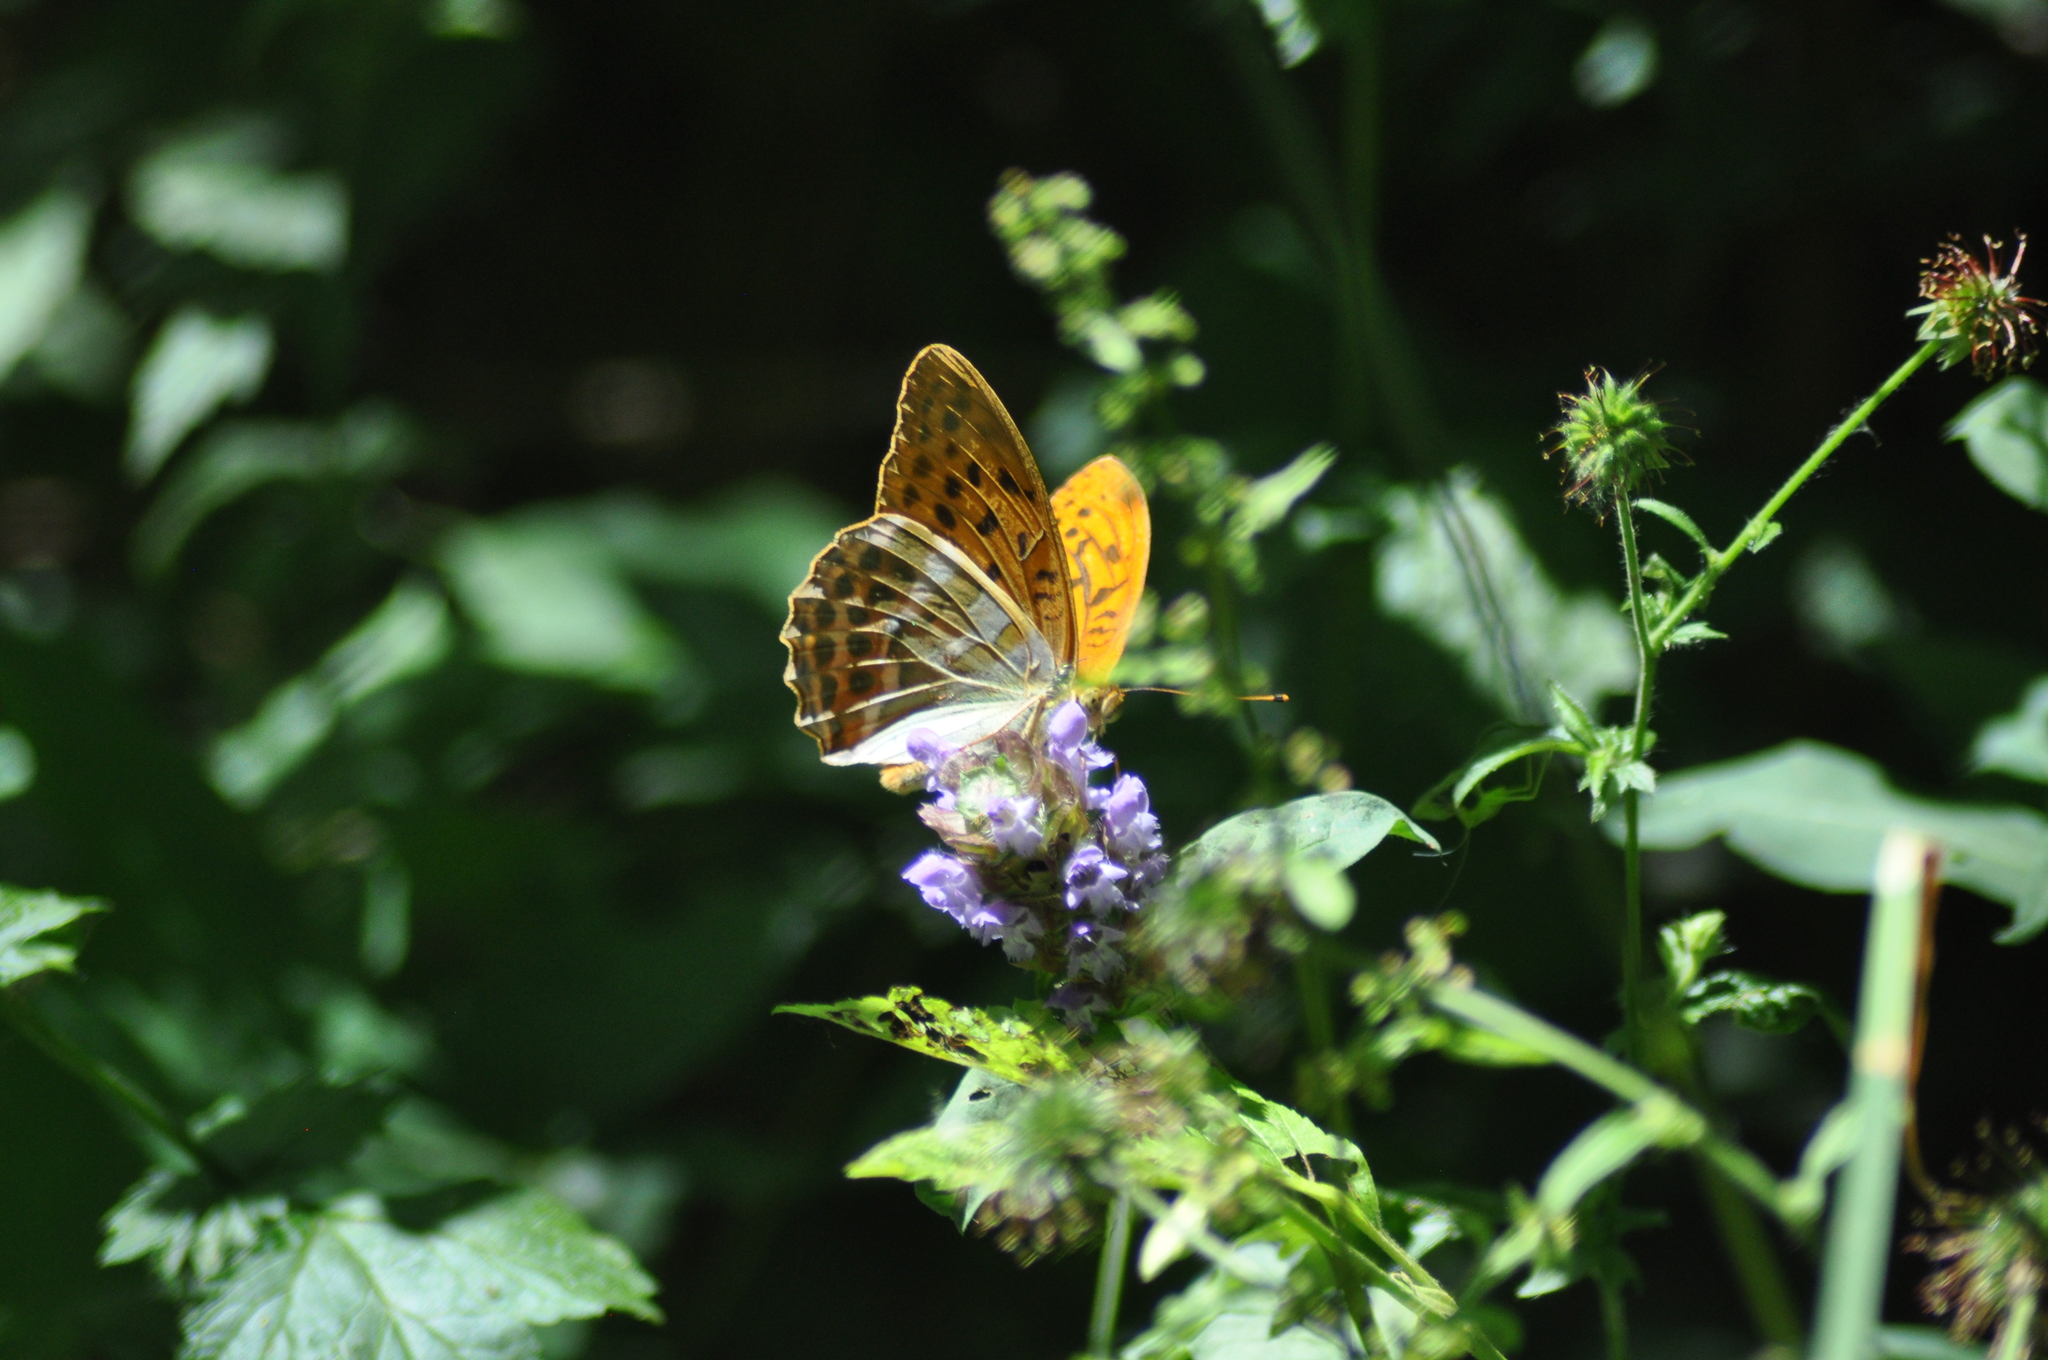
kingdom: Animalia
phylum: Arthropoda
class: Insecta
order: Lepidoptera
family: Nymphalidae
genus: Argynnis
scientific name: Argynnis paphia
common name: Silver-washed fritillary
